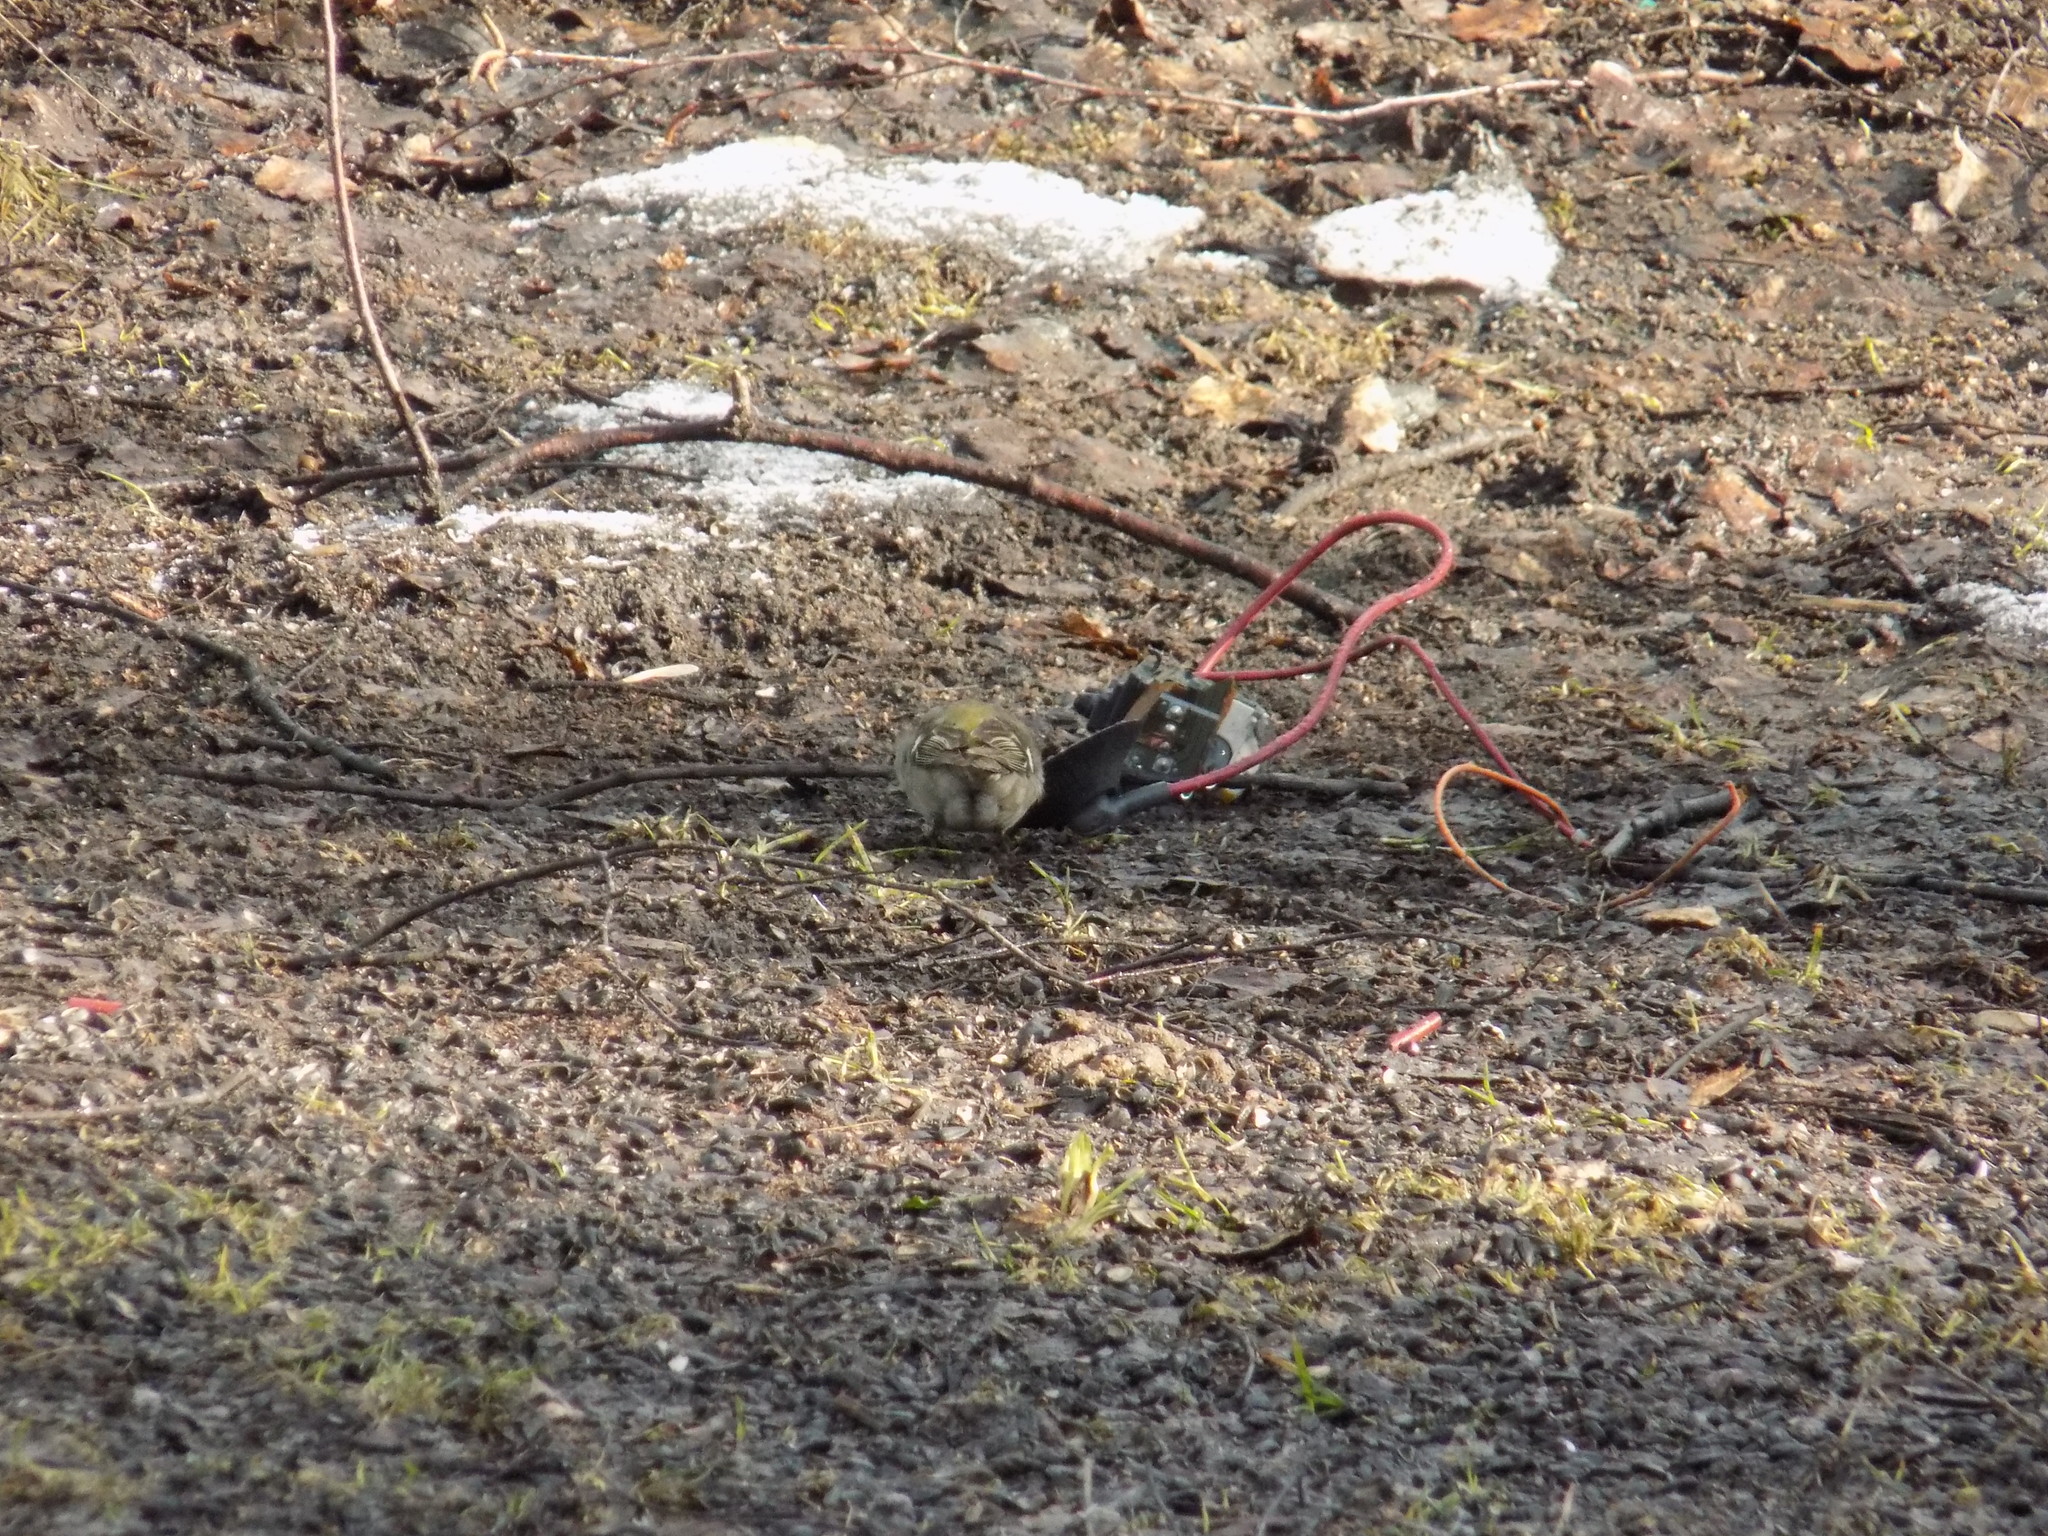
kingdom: Plantae
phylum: Tracheophyta
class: Liliopsida
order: Poales
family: Poaceae
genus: Chloris
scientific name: Chloris chloris
